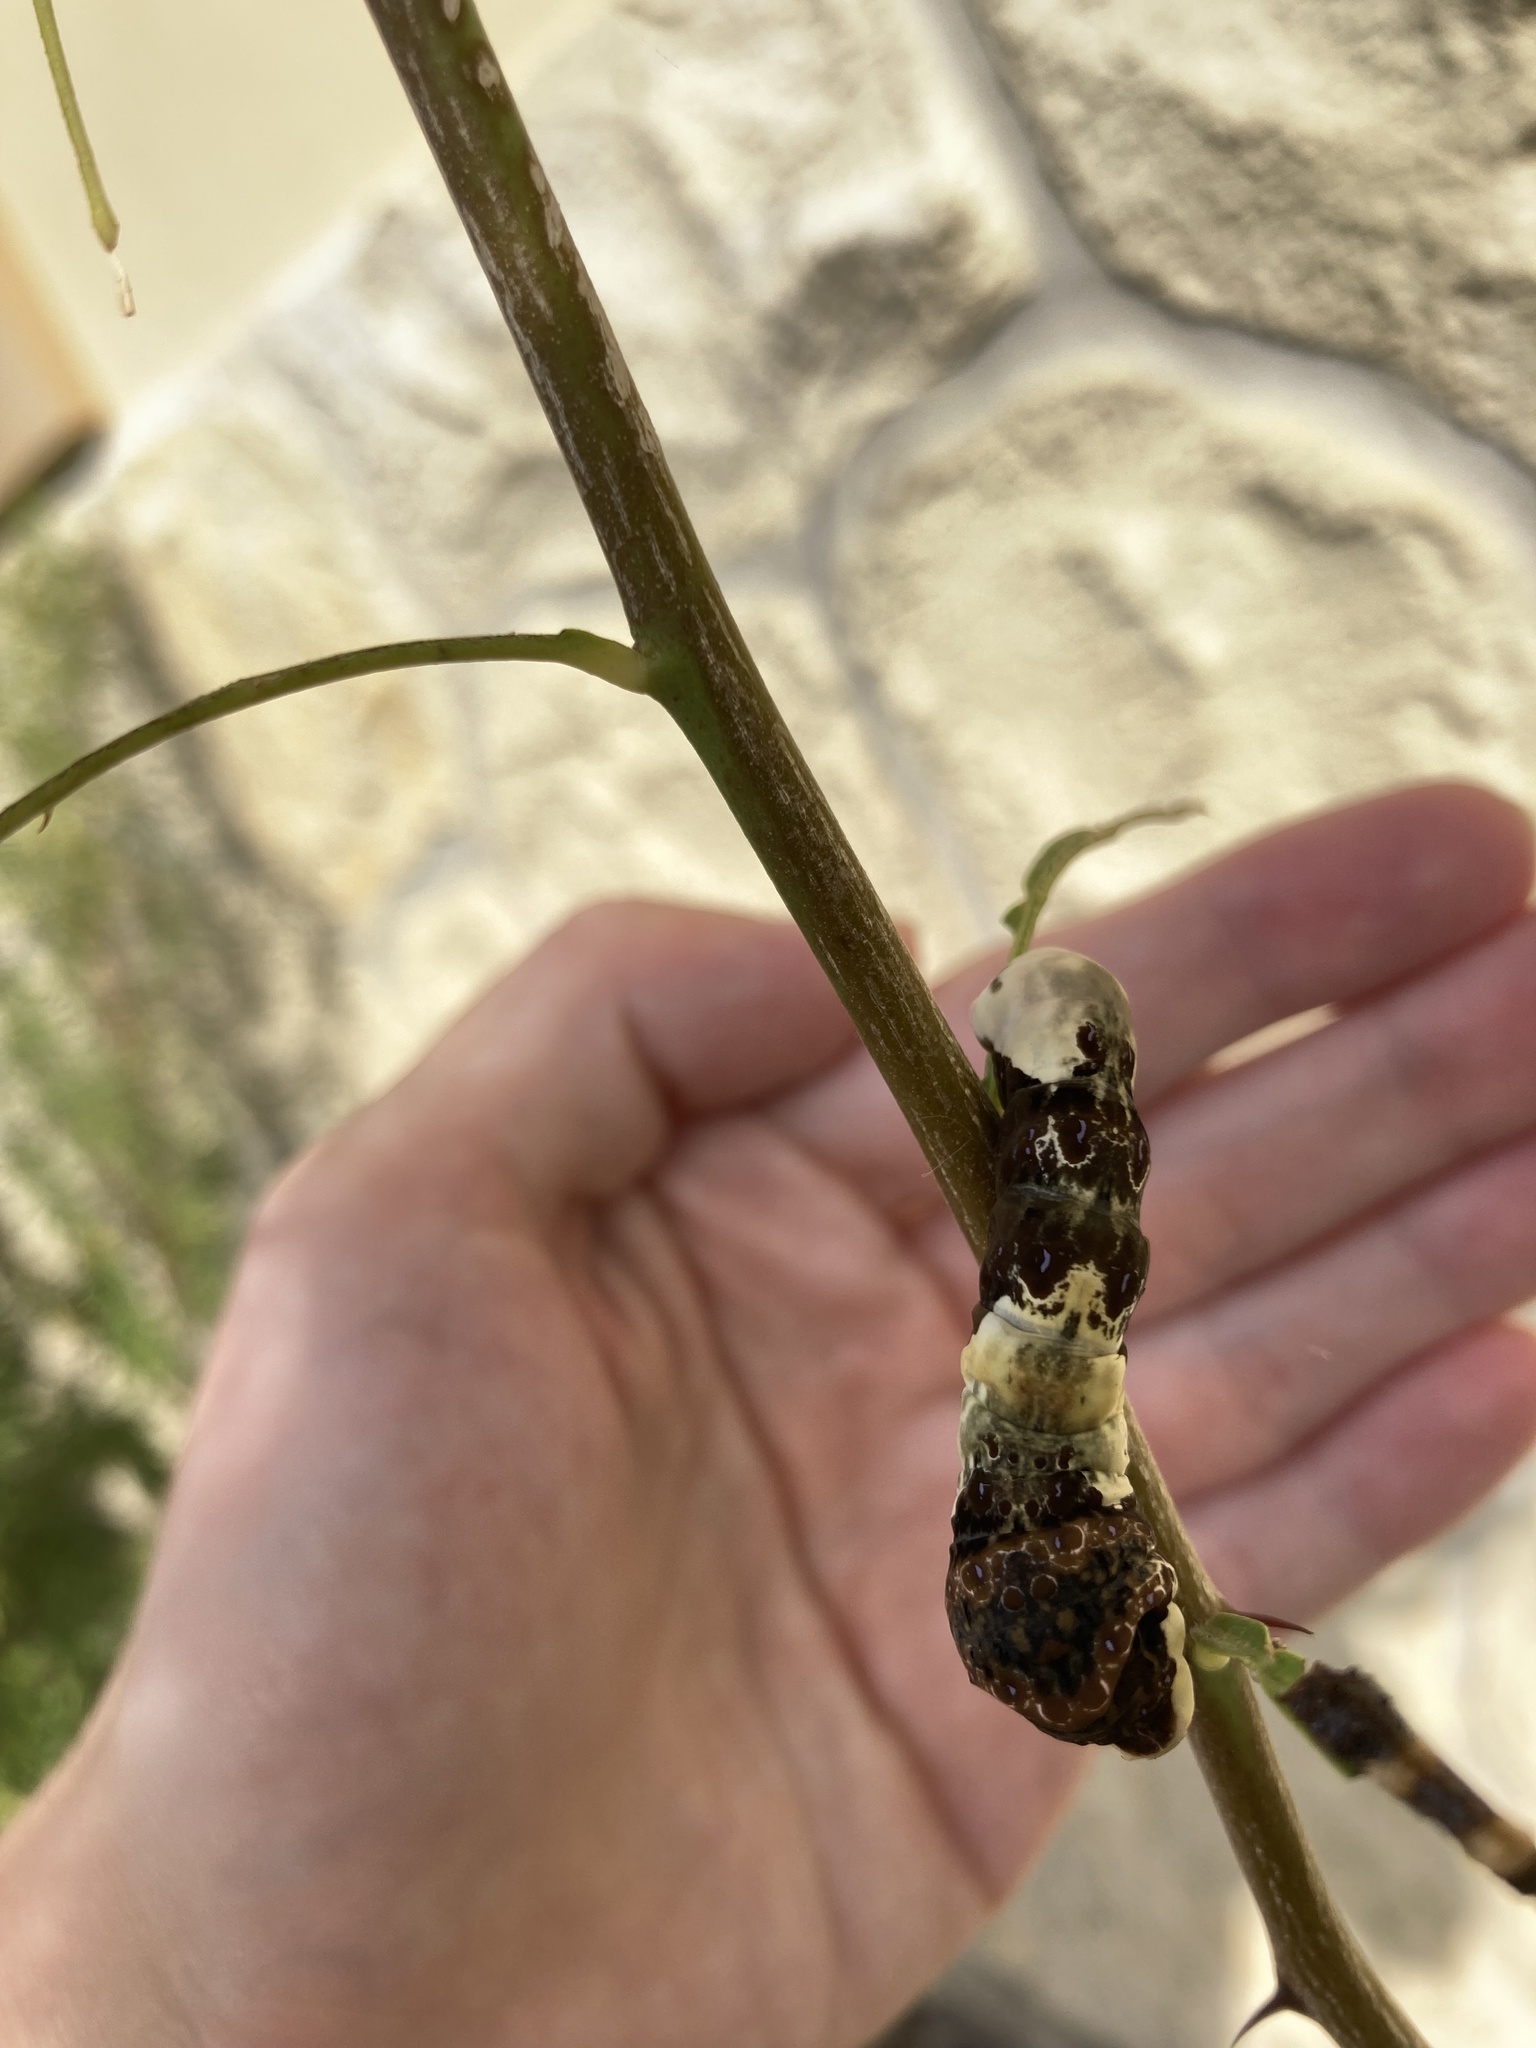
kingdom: Animalia
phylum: Arthropoda
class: Insecta
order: Lepidoptera
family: Papilionidae
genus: Papilio
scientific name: Papilio cresphontes
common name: Giant swallowtail
